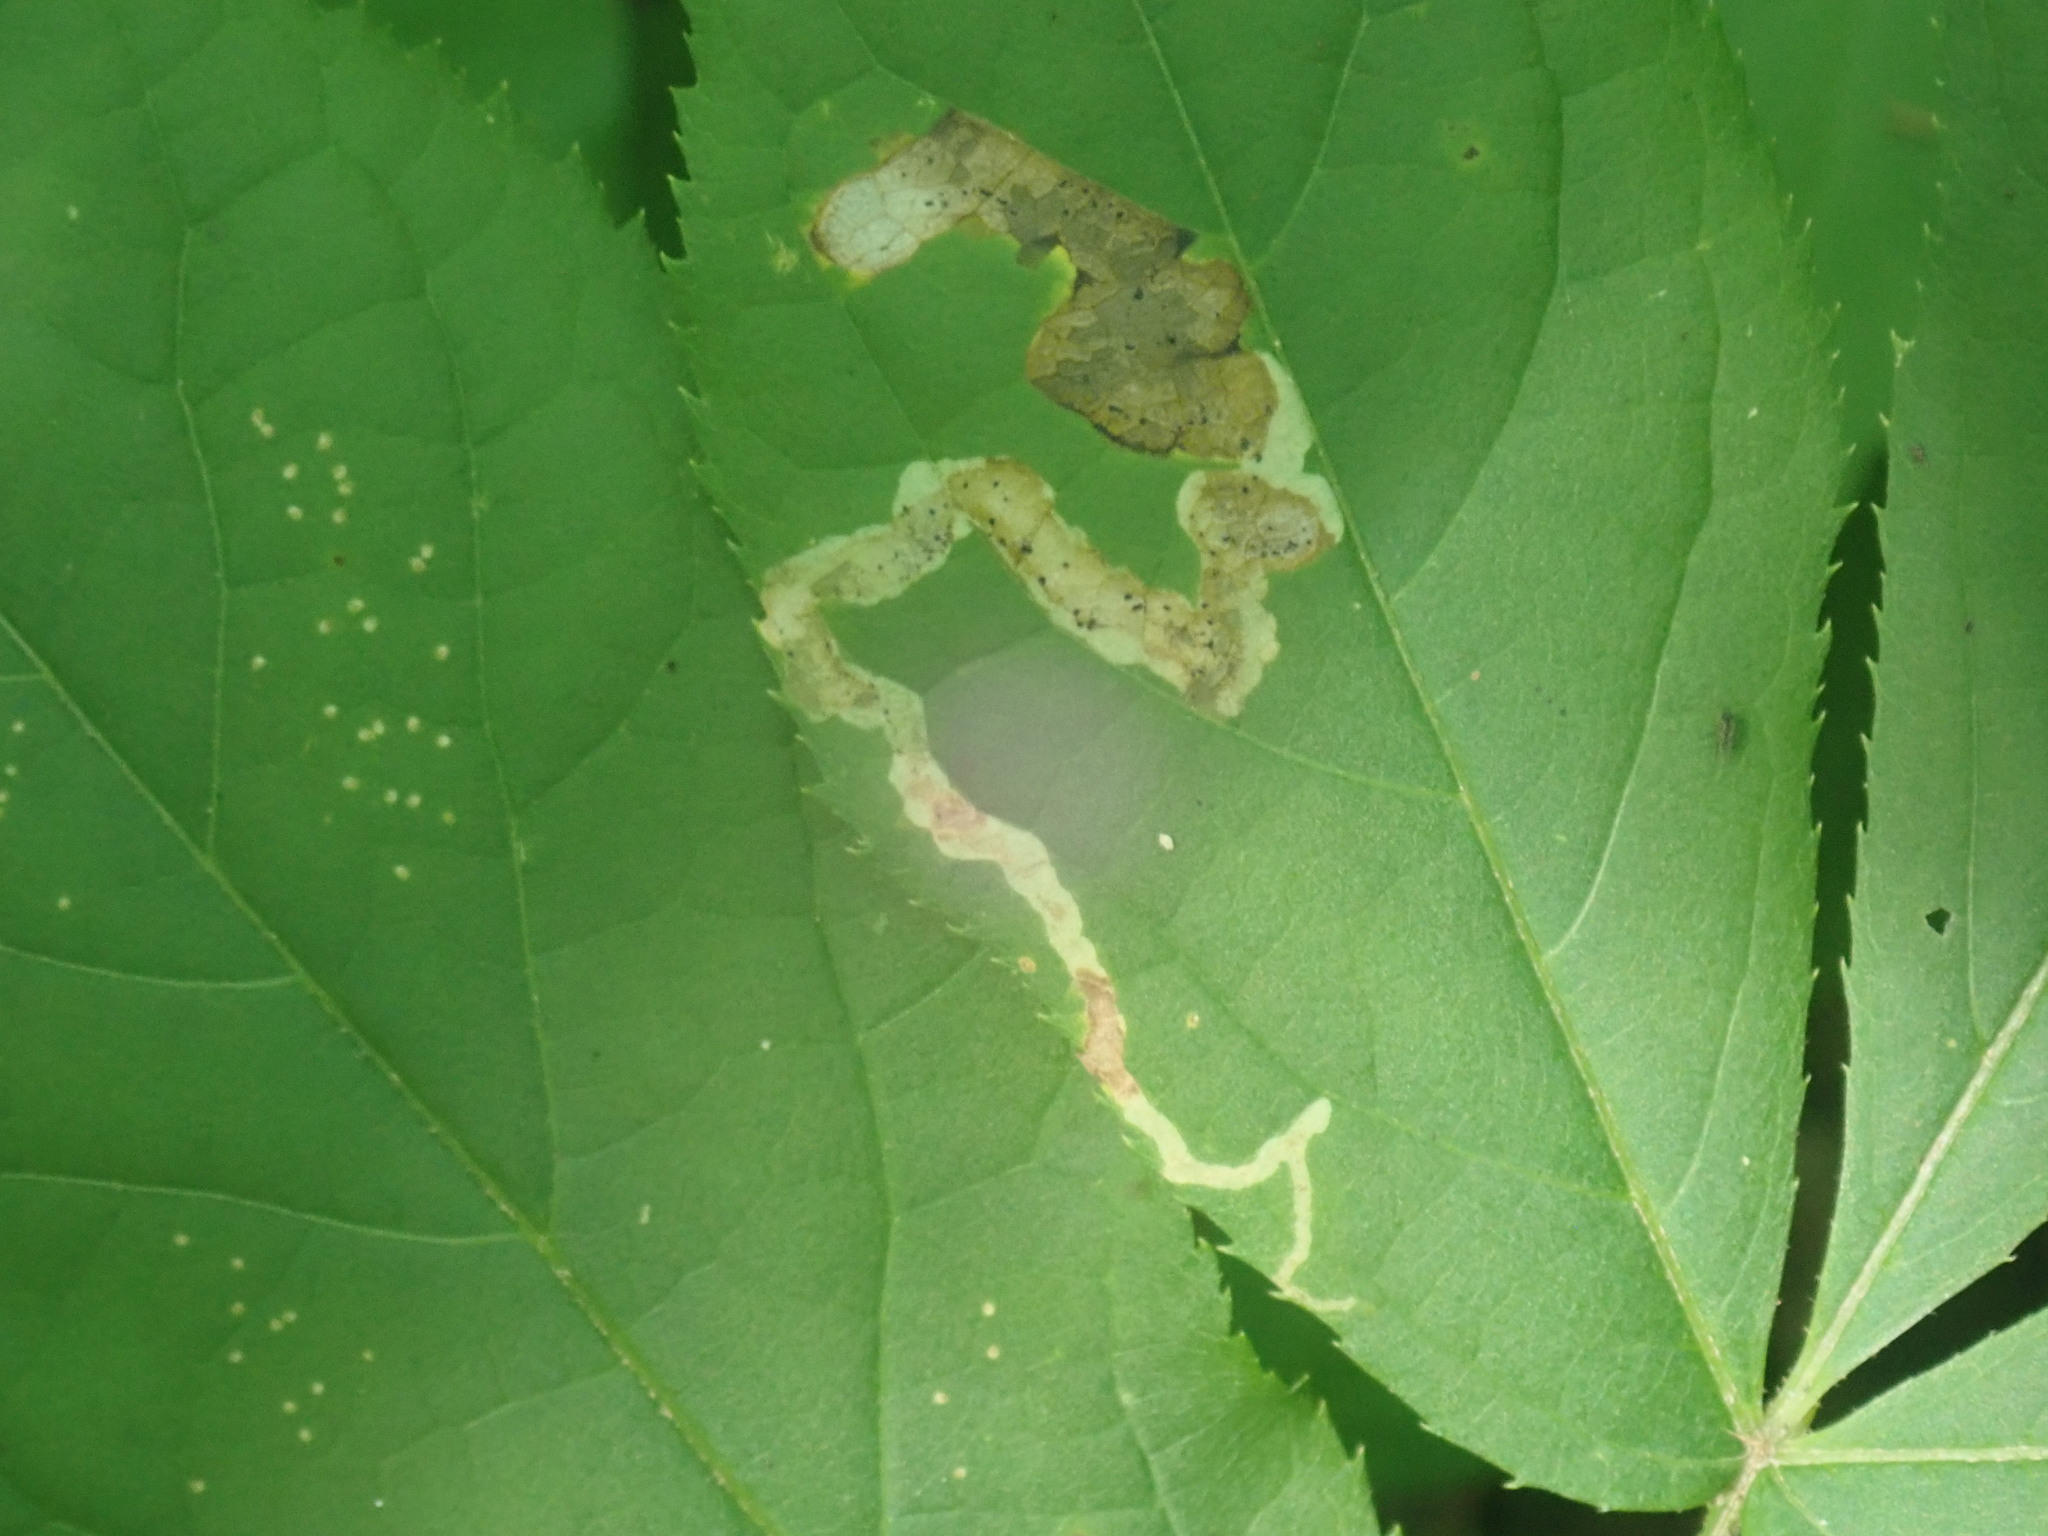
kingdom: Animalia
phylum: Arthropoda
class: Insecta
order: Diptera
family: Agromyzidae
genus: Phytomyza
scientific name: Phytomyza aralivora
